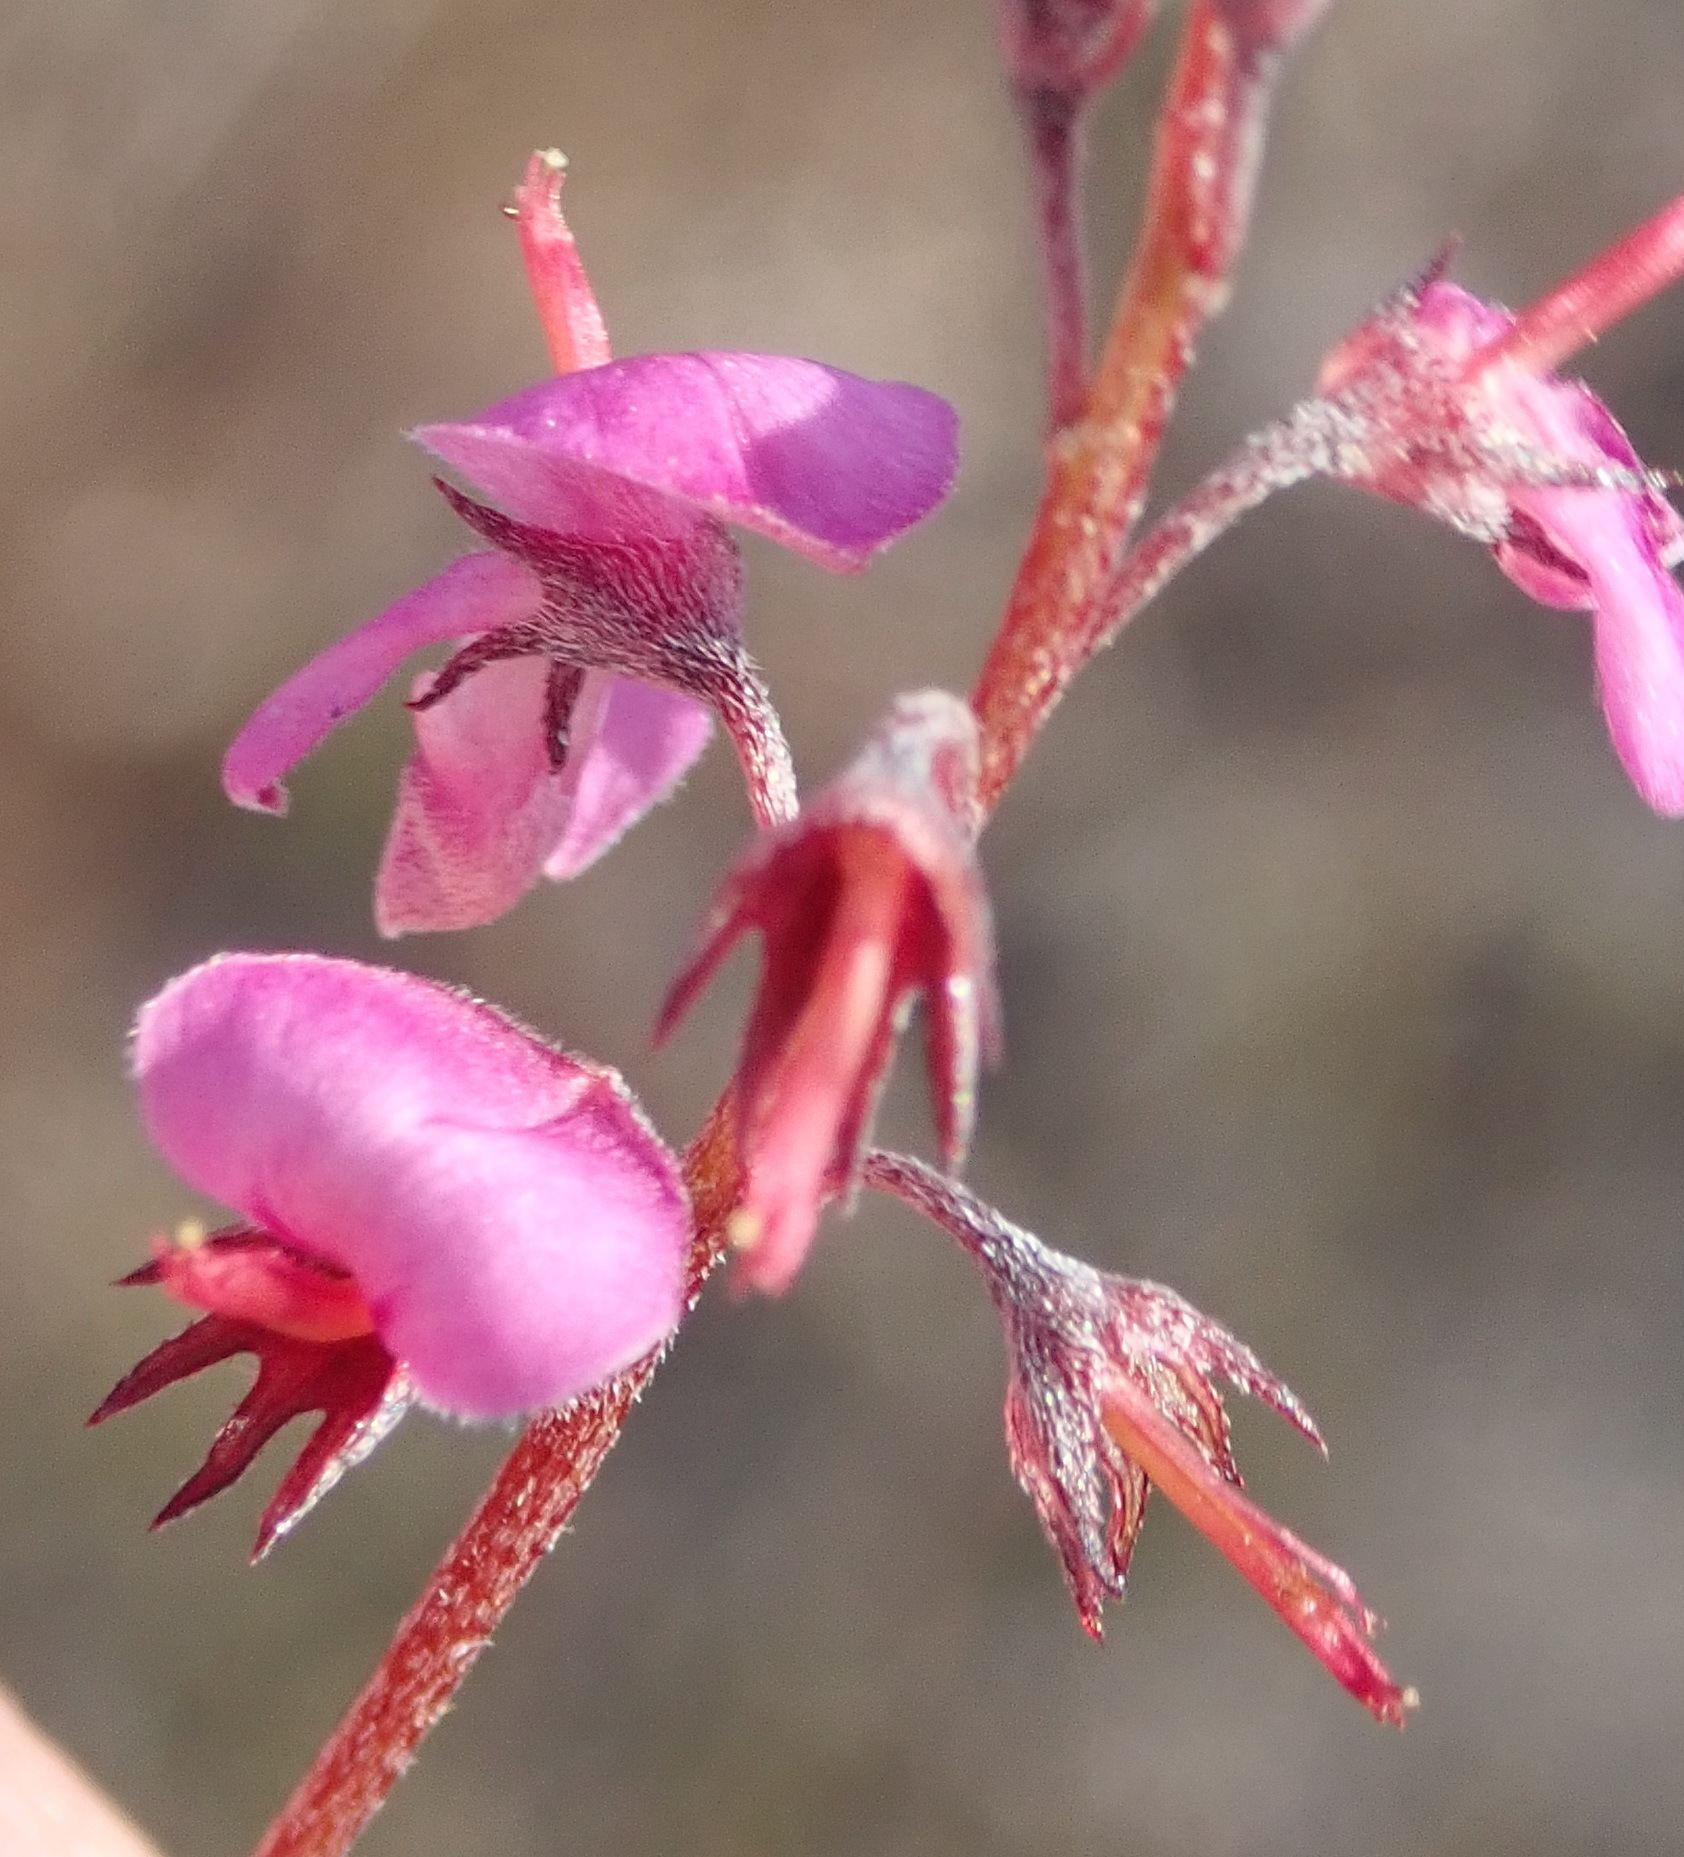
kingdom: Plantae
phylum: Tracheophyta
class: Magnoliopsida
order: Fabales
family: Fabaceae
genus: Indigofera
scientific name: Indigofera angustifolia
